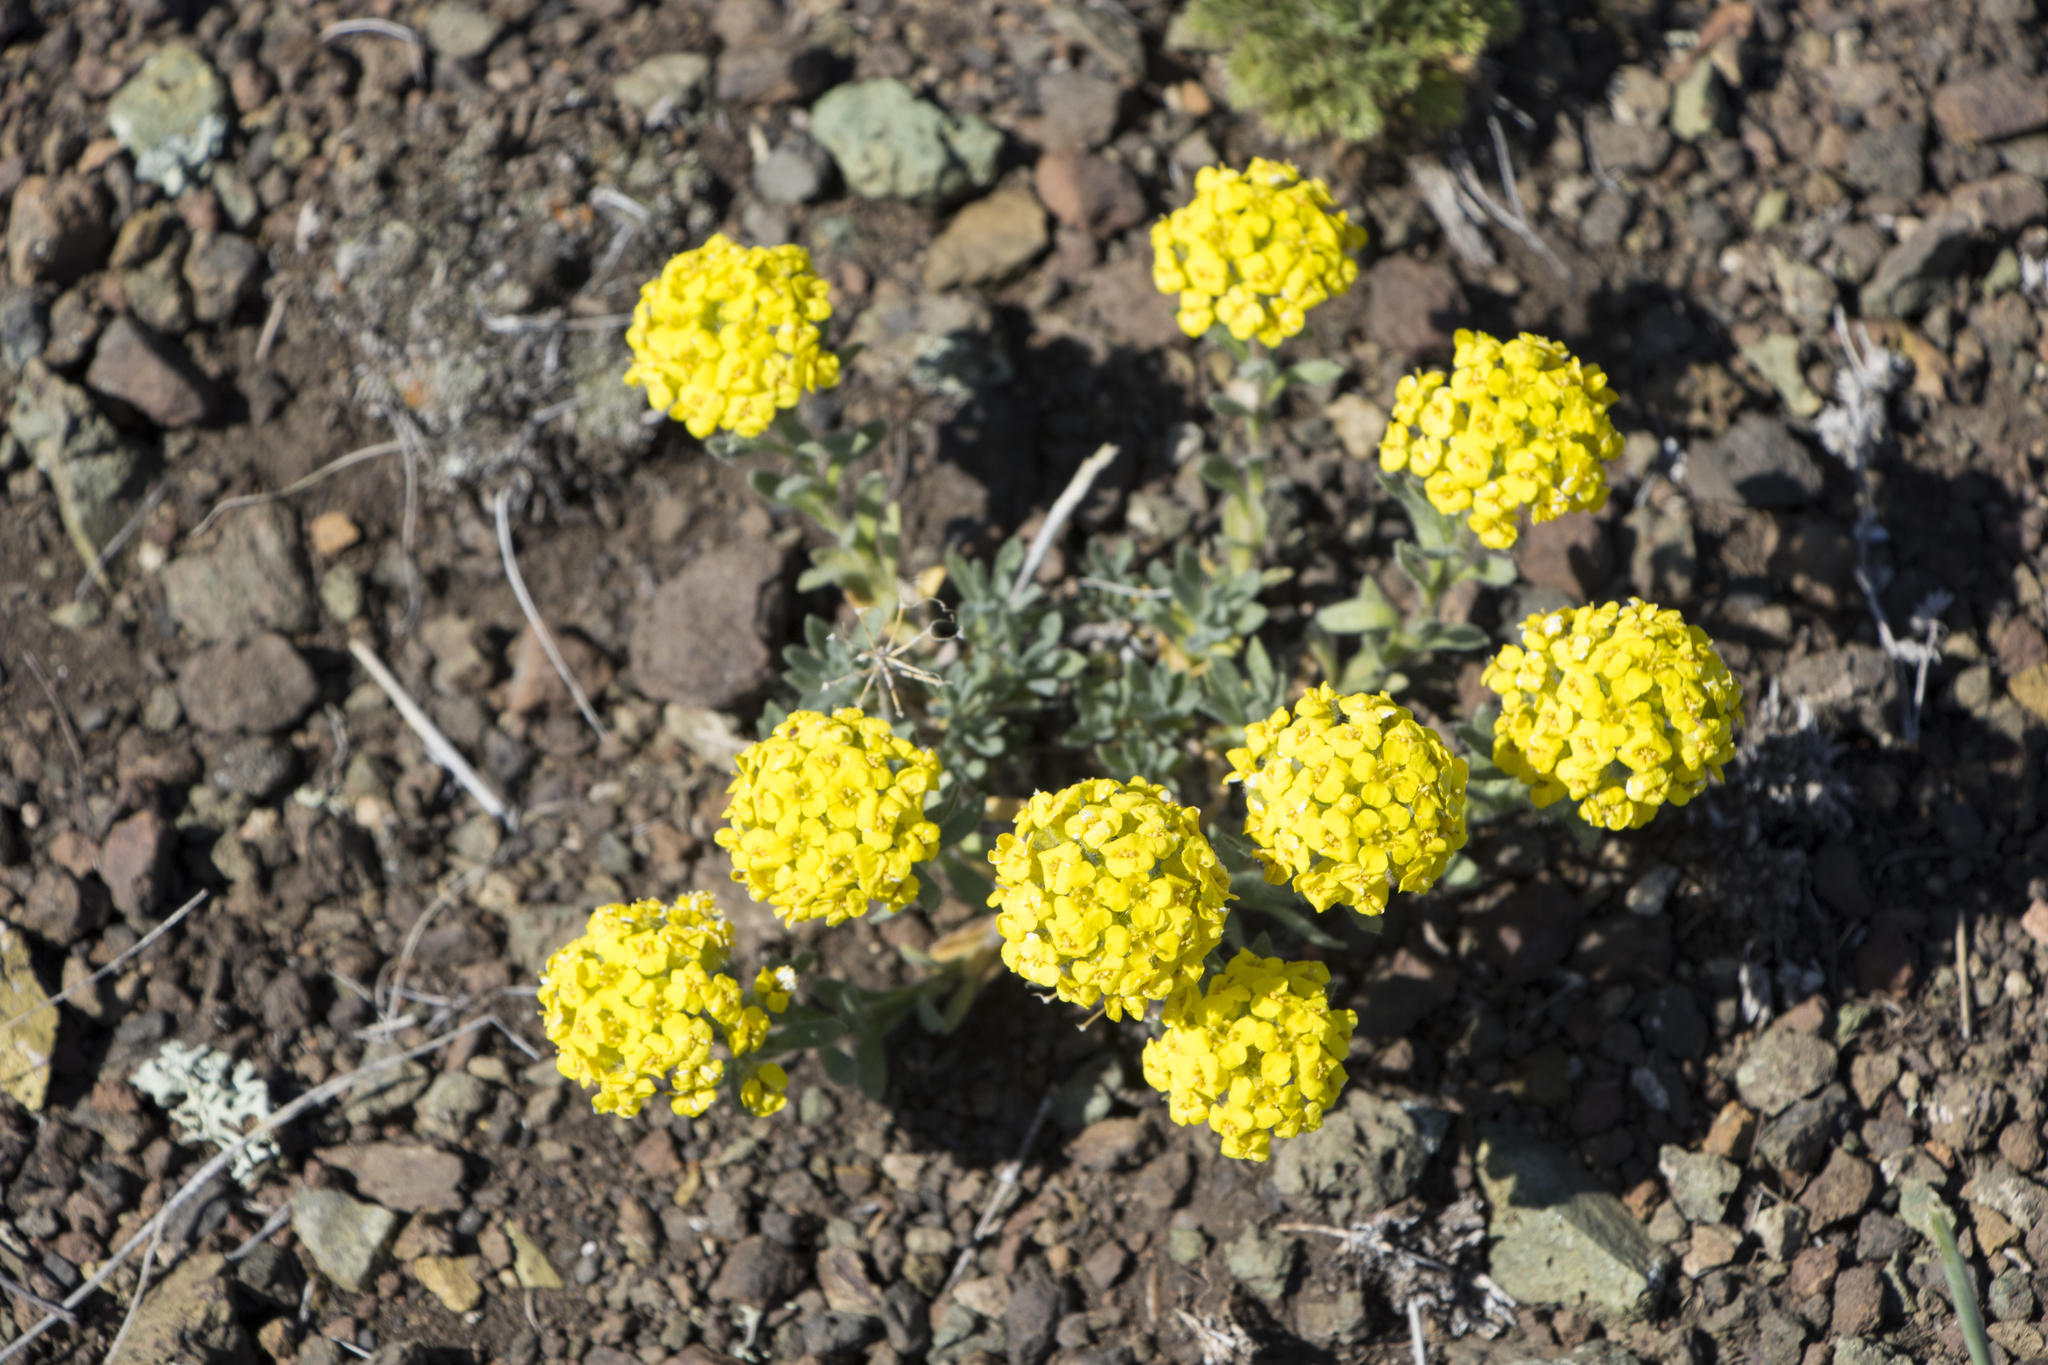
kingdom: Plantae
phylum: Tracheophyta
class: Magnoliopsida
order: Brassicales
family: Brassicaceae
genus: Alyssum
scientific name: Alyssum lenense
